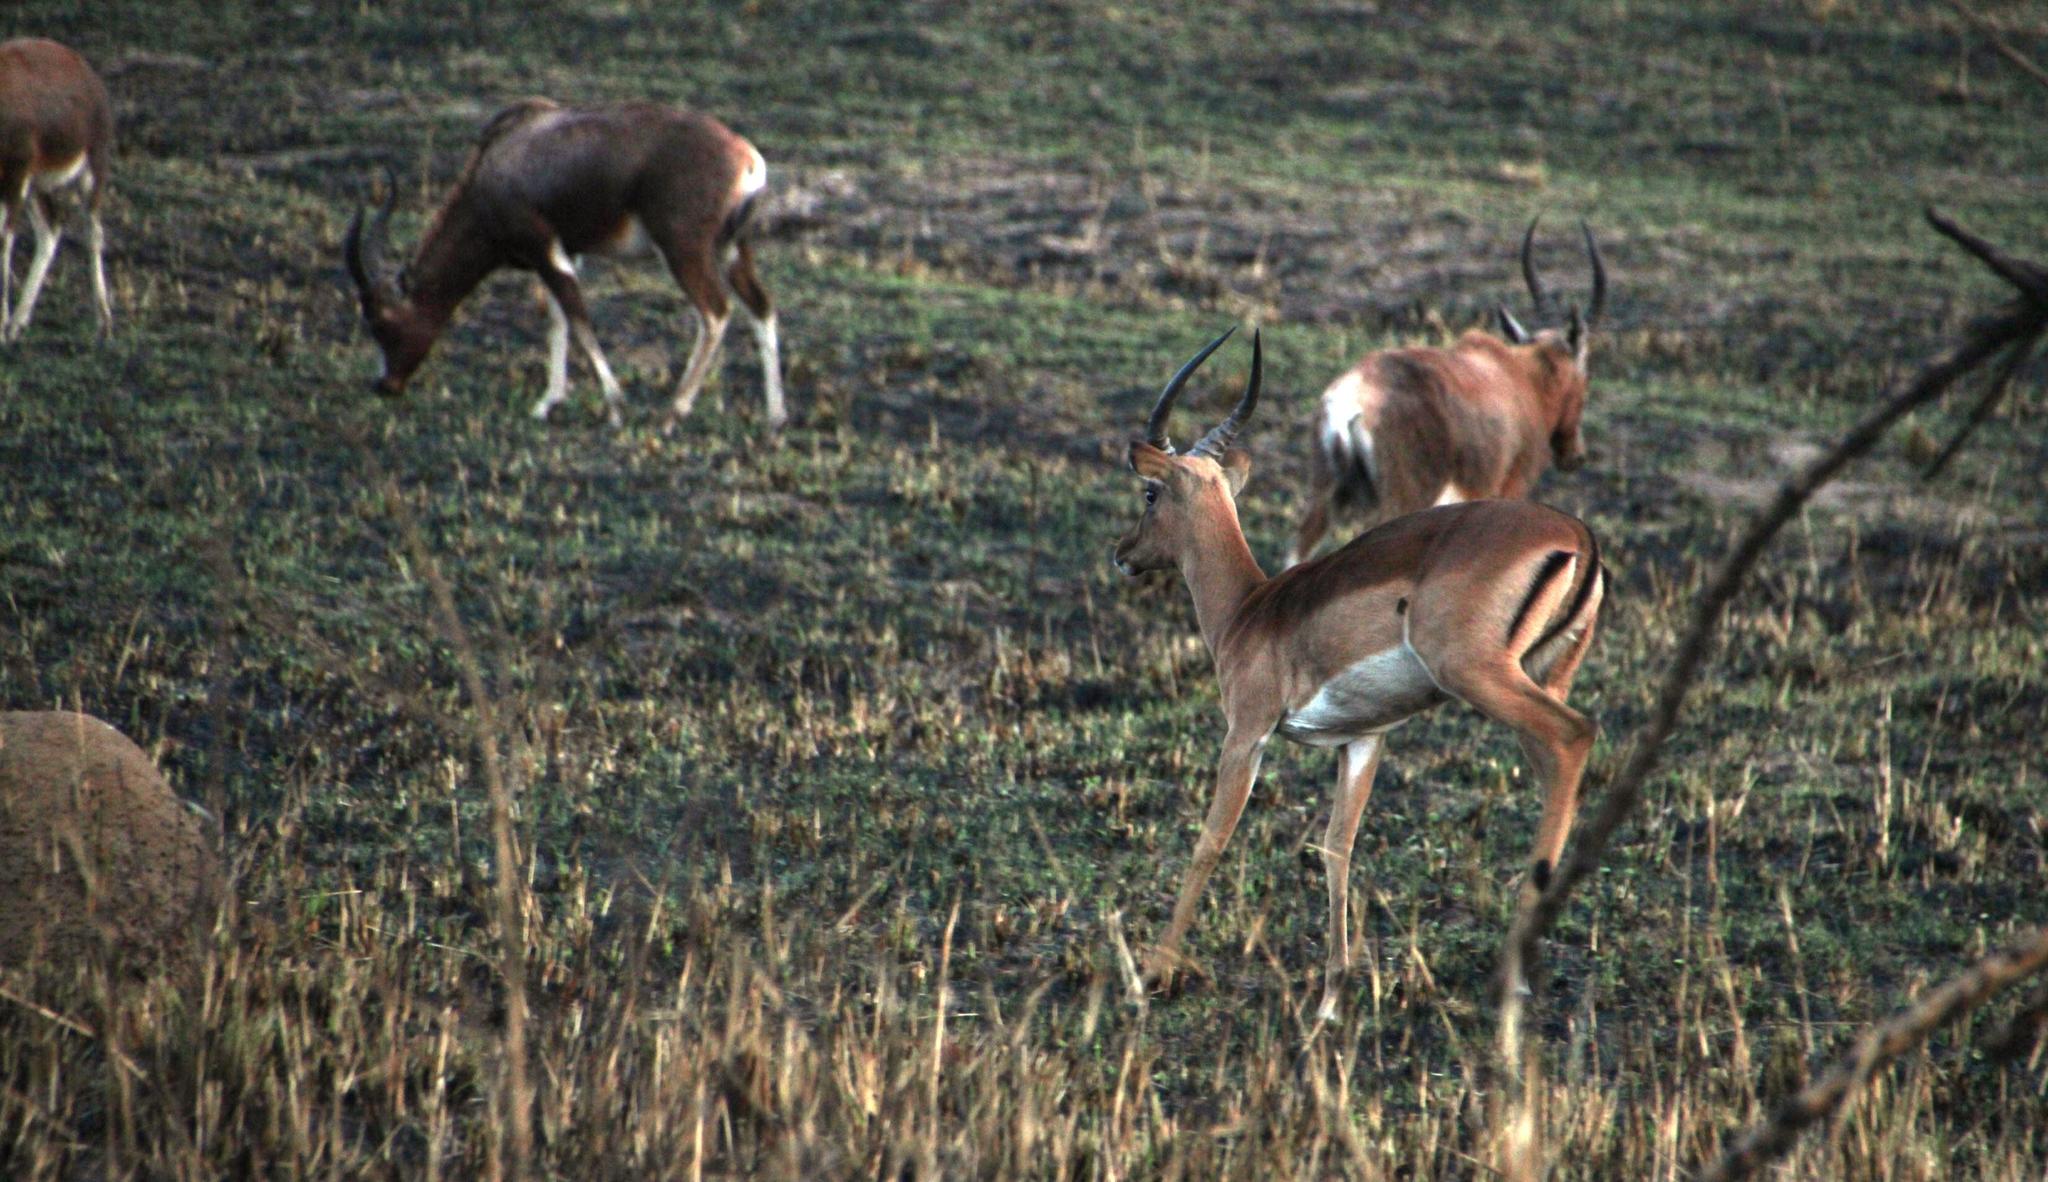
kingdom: Animalia
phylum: Chordata
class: Mammalia
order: Artiodactyla
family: Bovidae
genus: Damaliscus
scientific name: Damaliscus pygargus
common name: Bontebok
